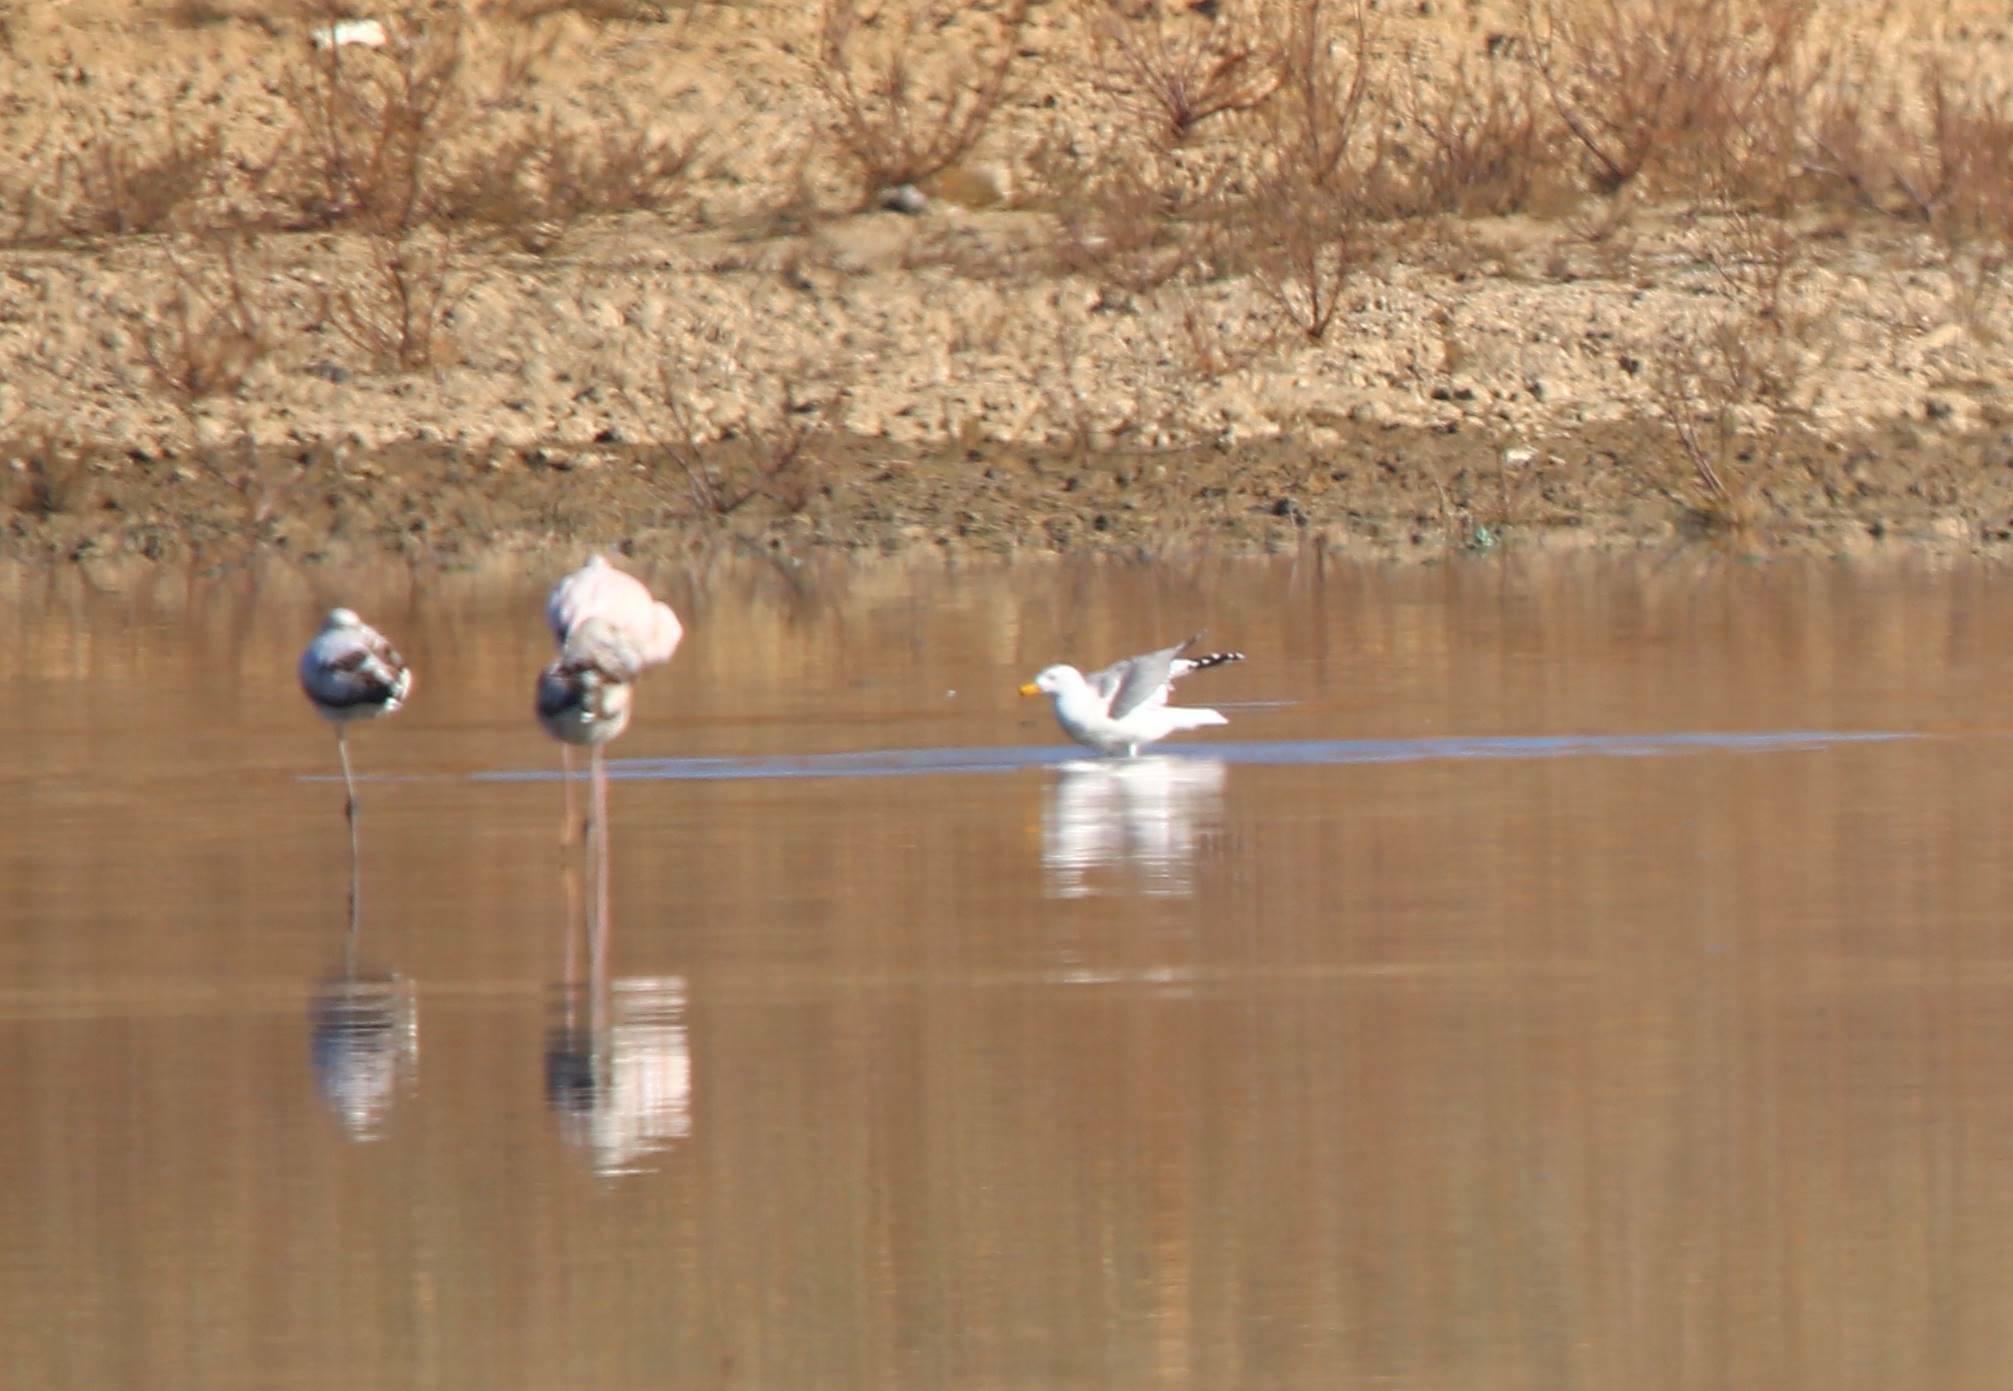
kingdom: Animalia
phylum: Chordata
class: Aves
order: Charadriiformes
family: Laridae
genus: Larus
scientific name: Larus michahellis
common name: Yellow-legged gull
